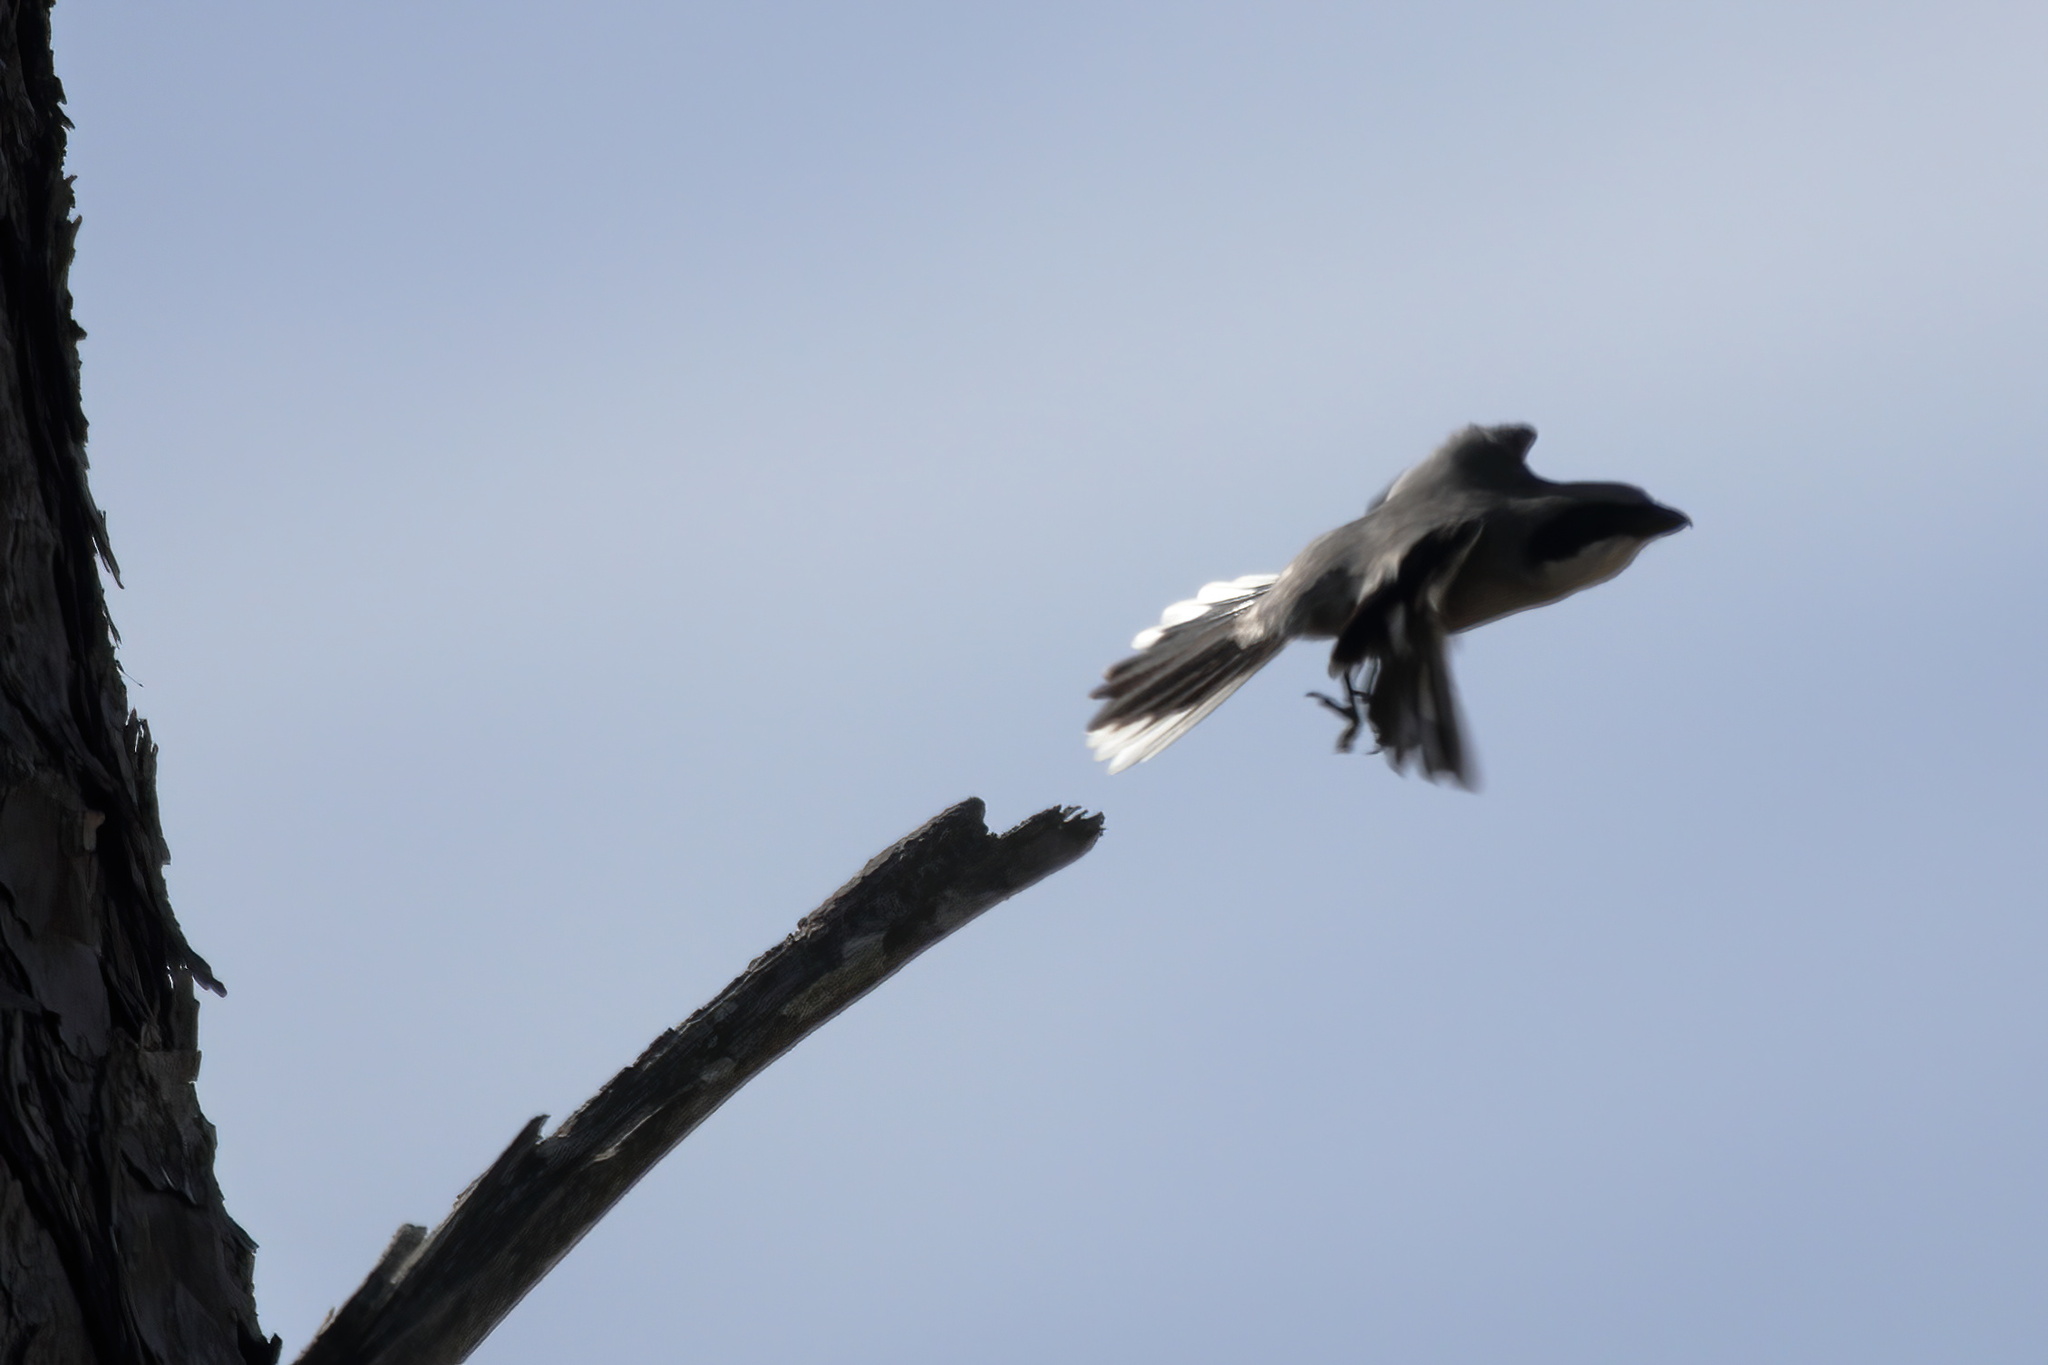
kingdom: Animalia
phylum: Chordata
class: Aves
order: Passeriformes
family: Laniidae
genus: Lanius
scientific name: Lanius ludovicianus
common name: Loggerhead shrike
